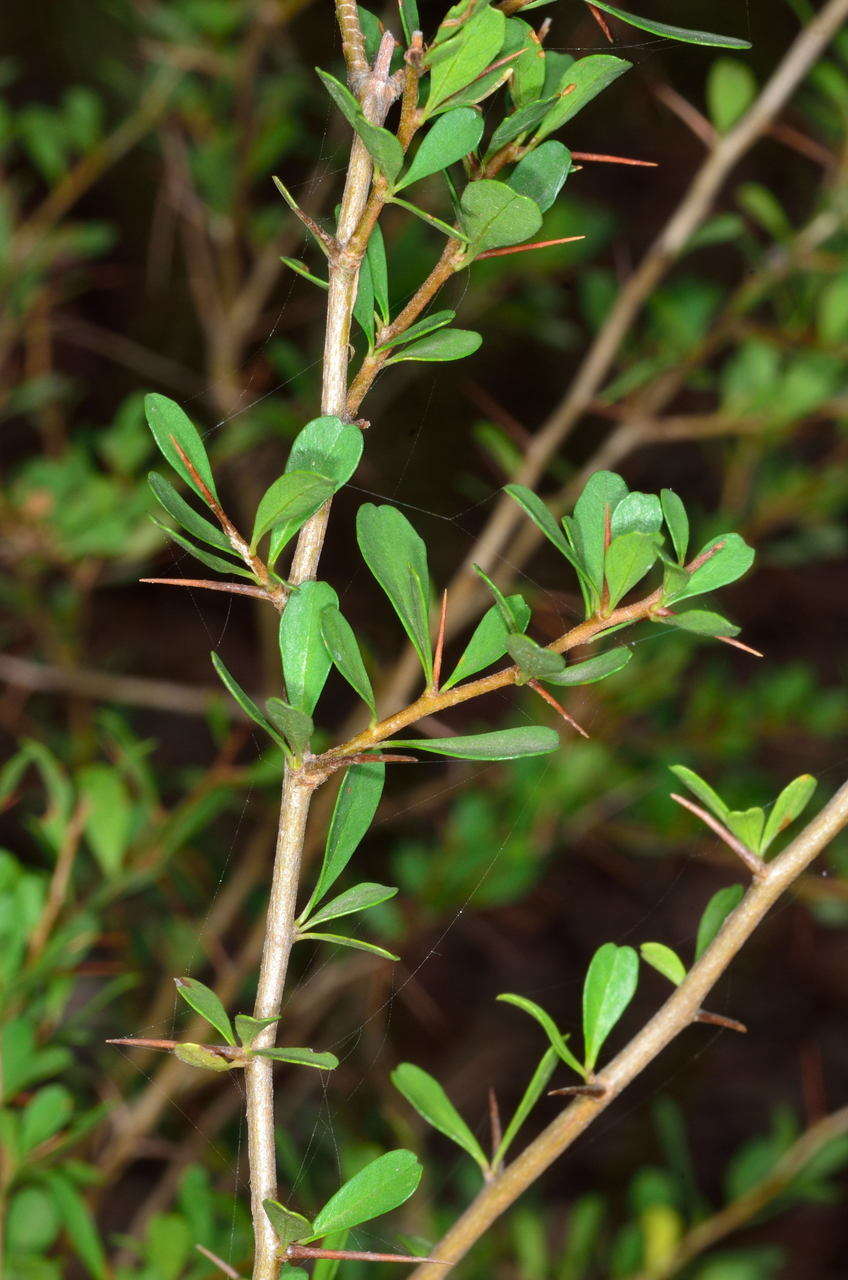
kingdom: Plantae
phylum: Tracheophyta
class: Magnoliopsida
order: Apiales
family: Pittosporaceae
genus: Bursaria
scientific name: Bursaria spinosa
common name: Australian blackthorn
